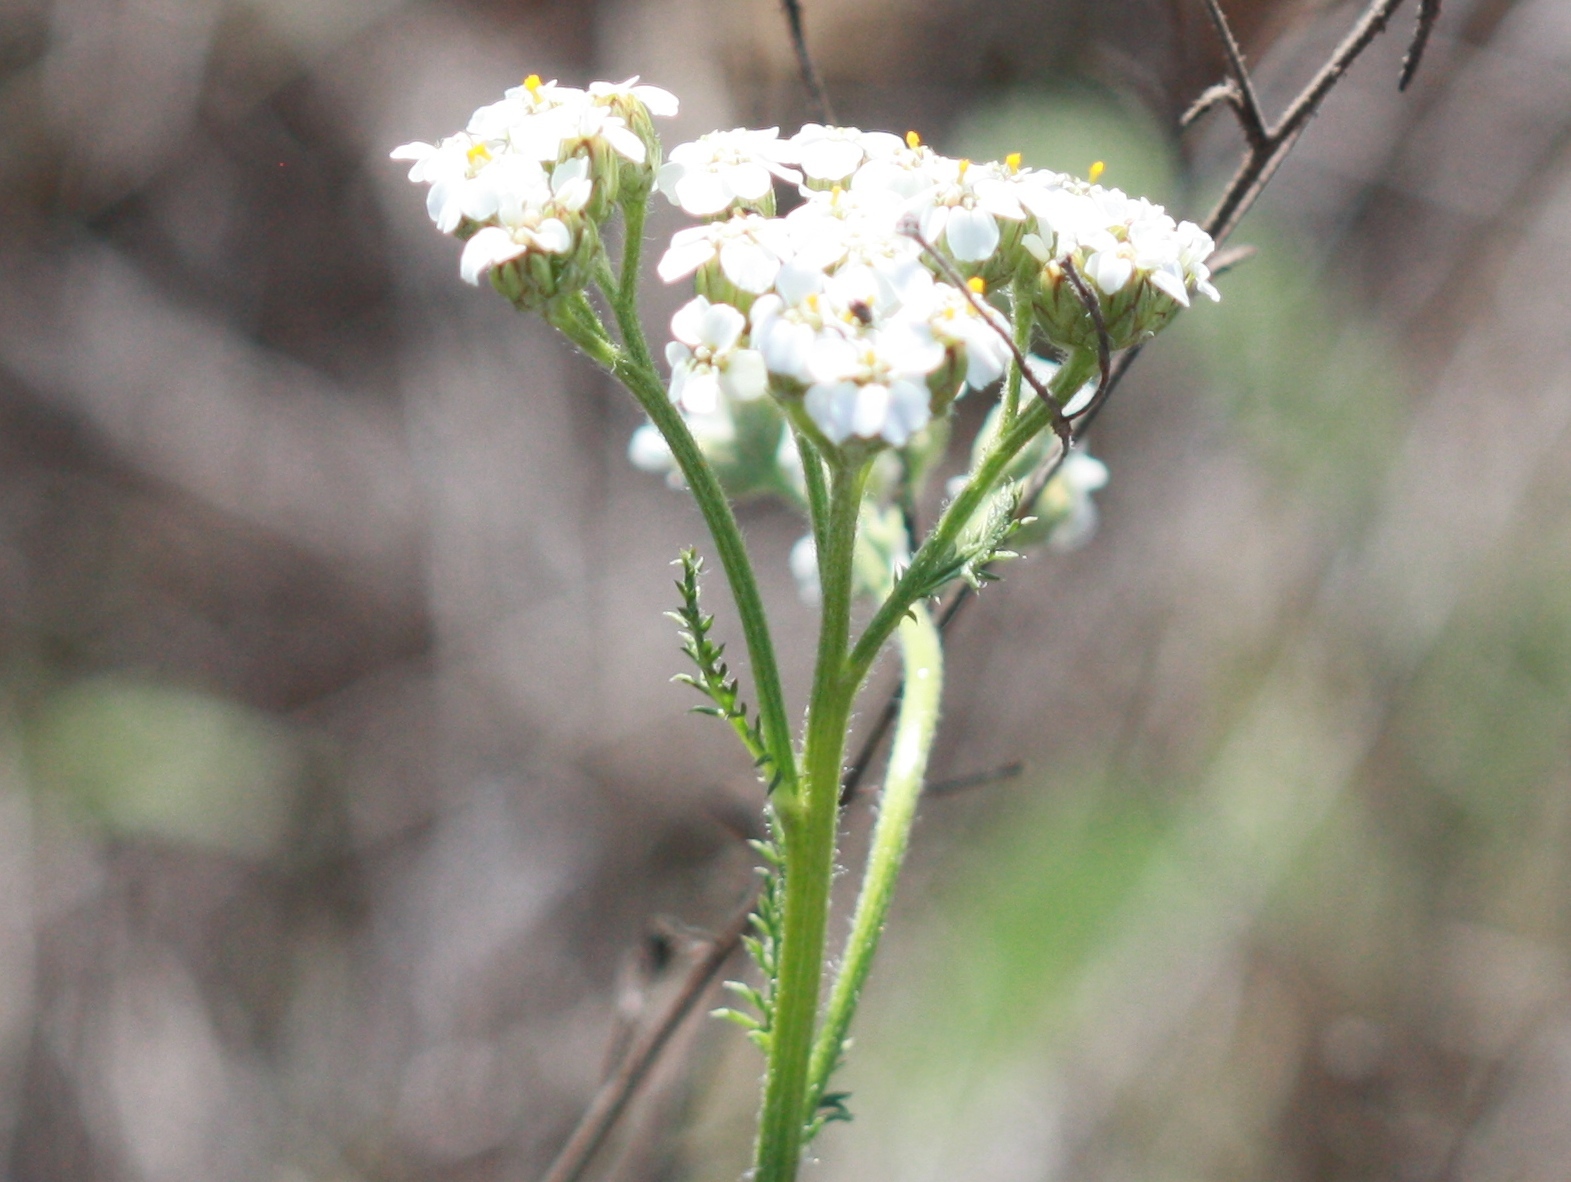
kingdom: Plantae
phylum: Tracheophyta
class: Magnoliopsida
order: Asterales
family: Asteraceae
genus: Achillea
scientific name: Achillea millefolium
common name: Yarrow
